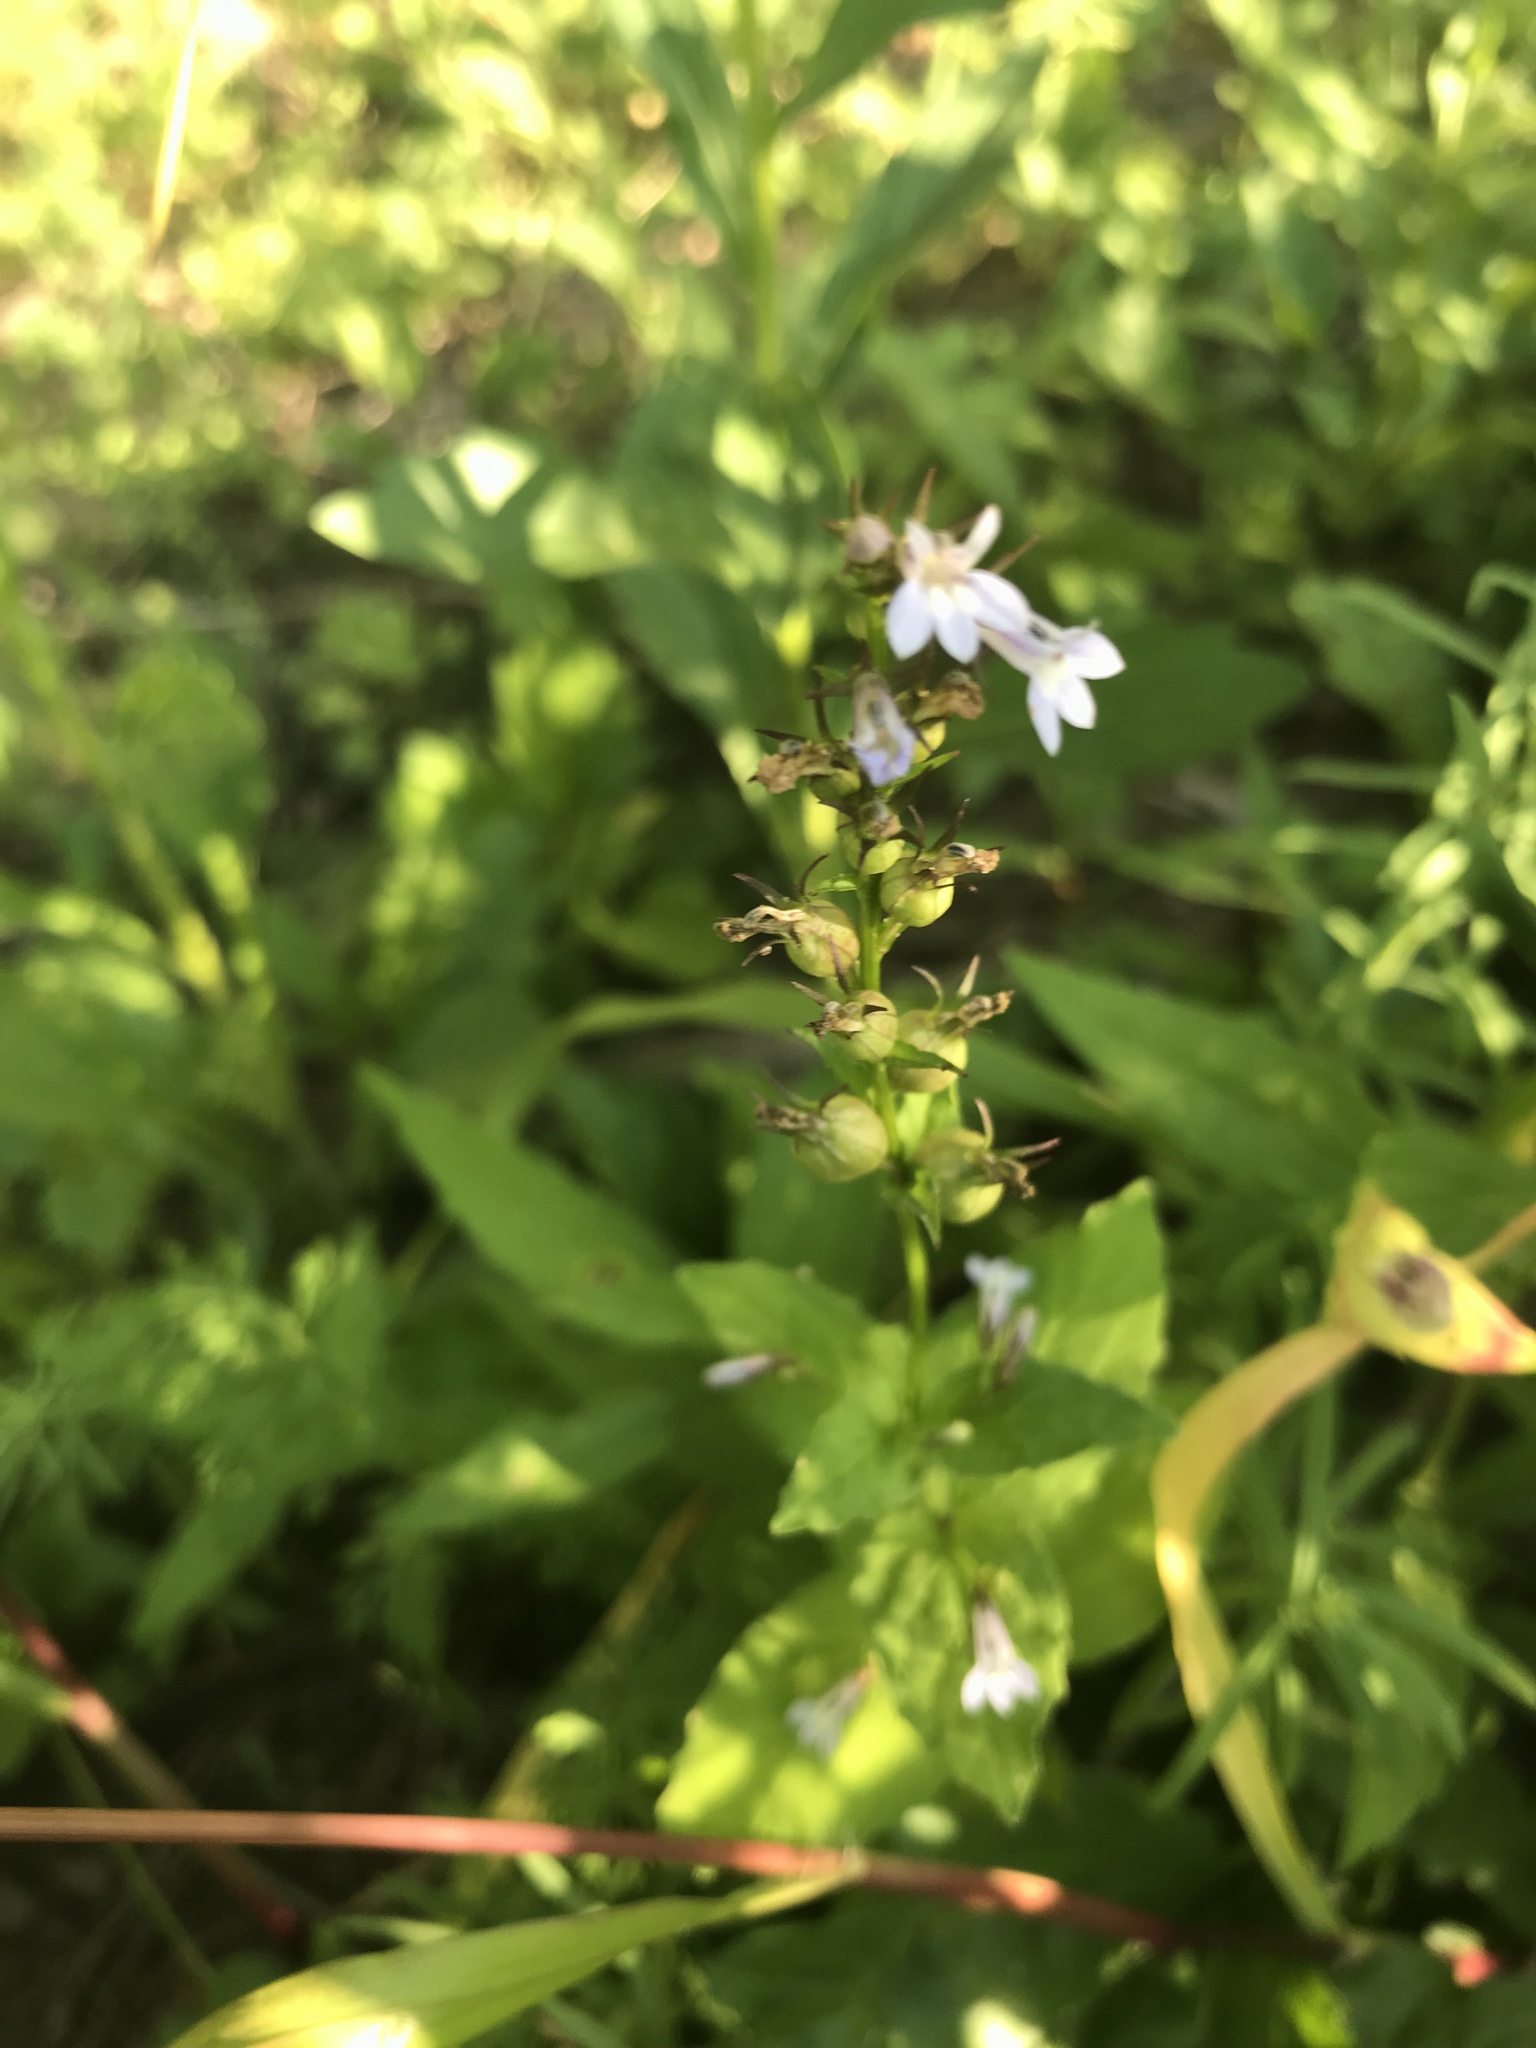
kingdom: Plantae
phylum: Tracheophyta
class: Magnoliopsida
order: Asterales
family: Campanulaceae
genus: Lobelia
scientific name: Lobelia inflata
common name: Indian tobacco
